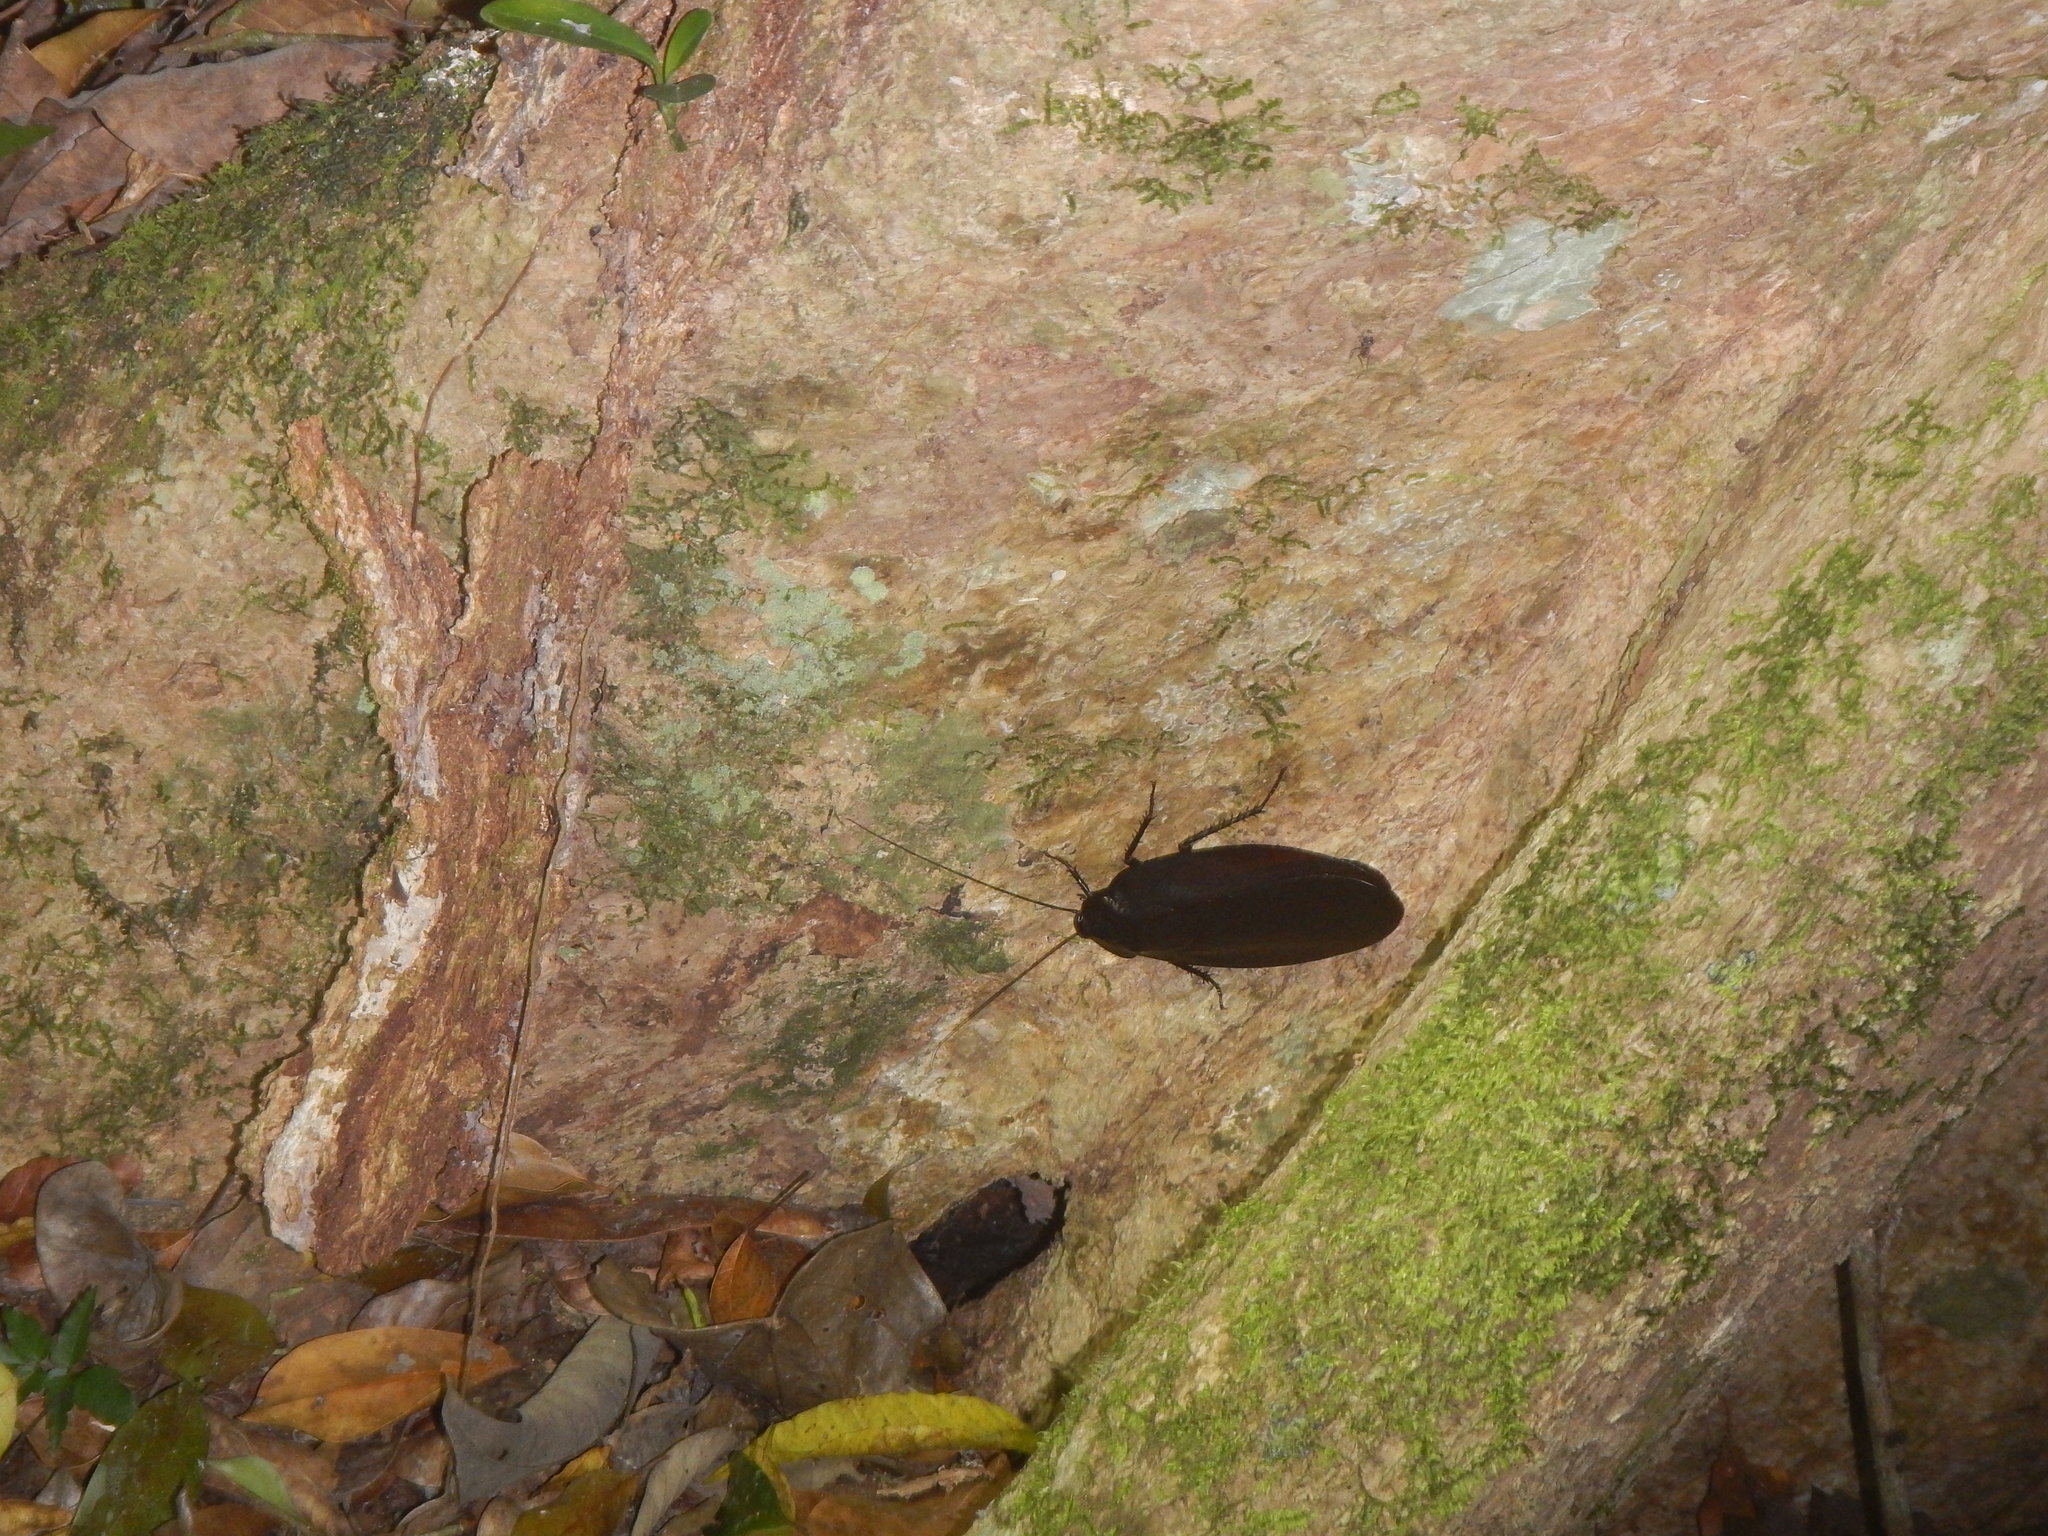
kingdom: Animalia
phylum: Arthropoda
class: Insecta
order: Blattodea
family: Ectobiidae
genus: Megaloblatta
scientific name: Megaloblatta blaberoides
